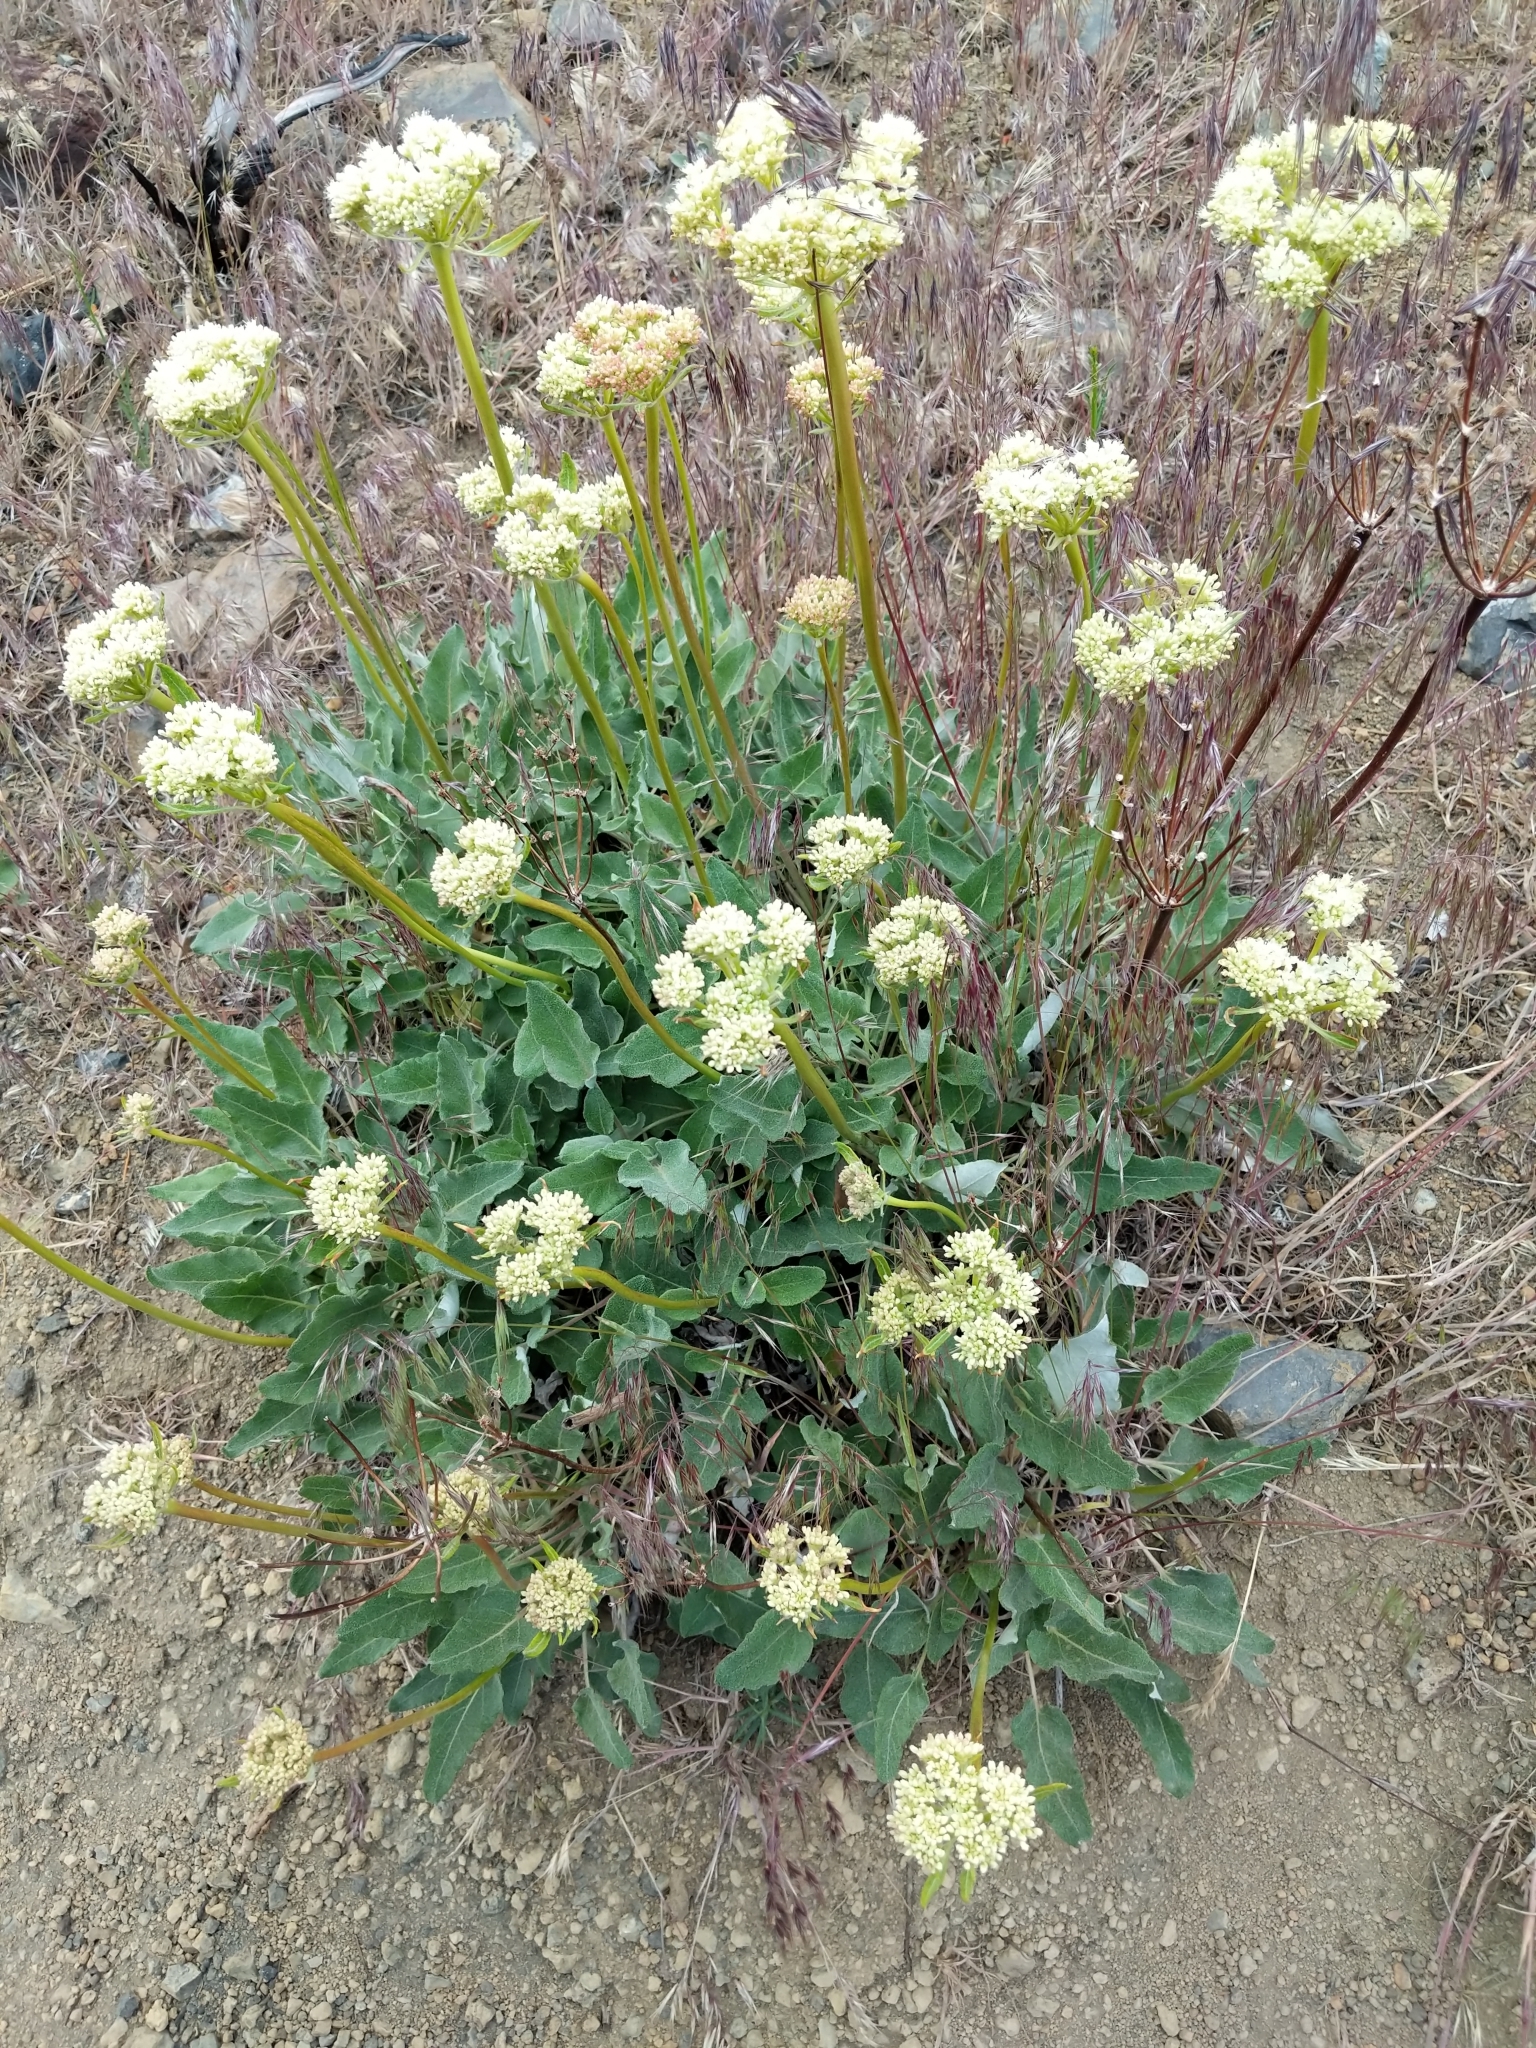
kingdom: Plantae
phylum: Tracheophyta
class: Magnoliopsida
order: Caryophyllales
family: Polygonaceae
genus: Eriogonum
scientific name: Eriogonum compositum
